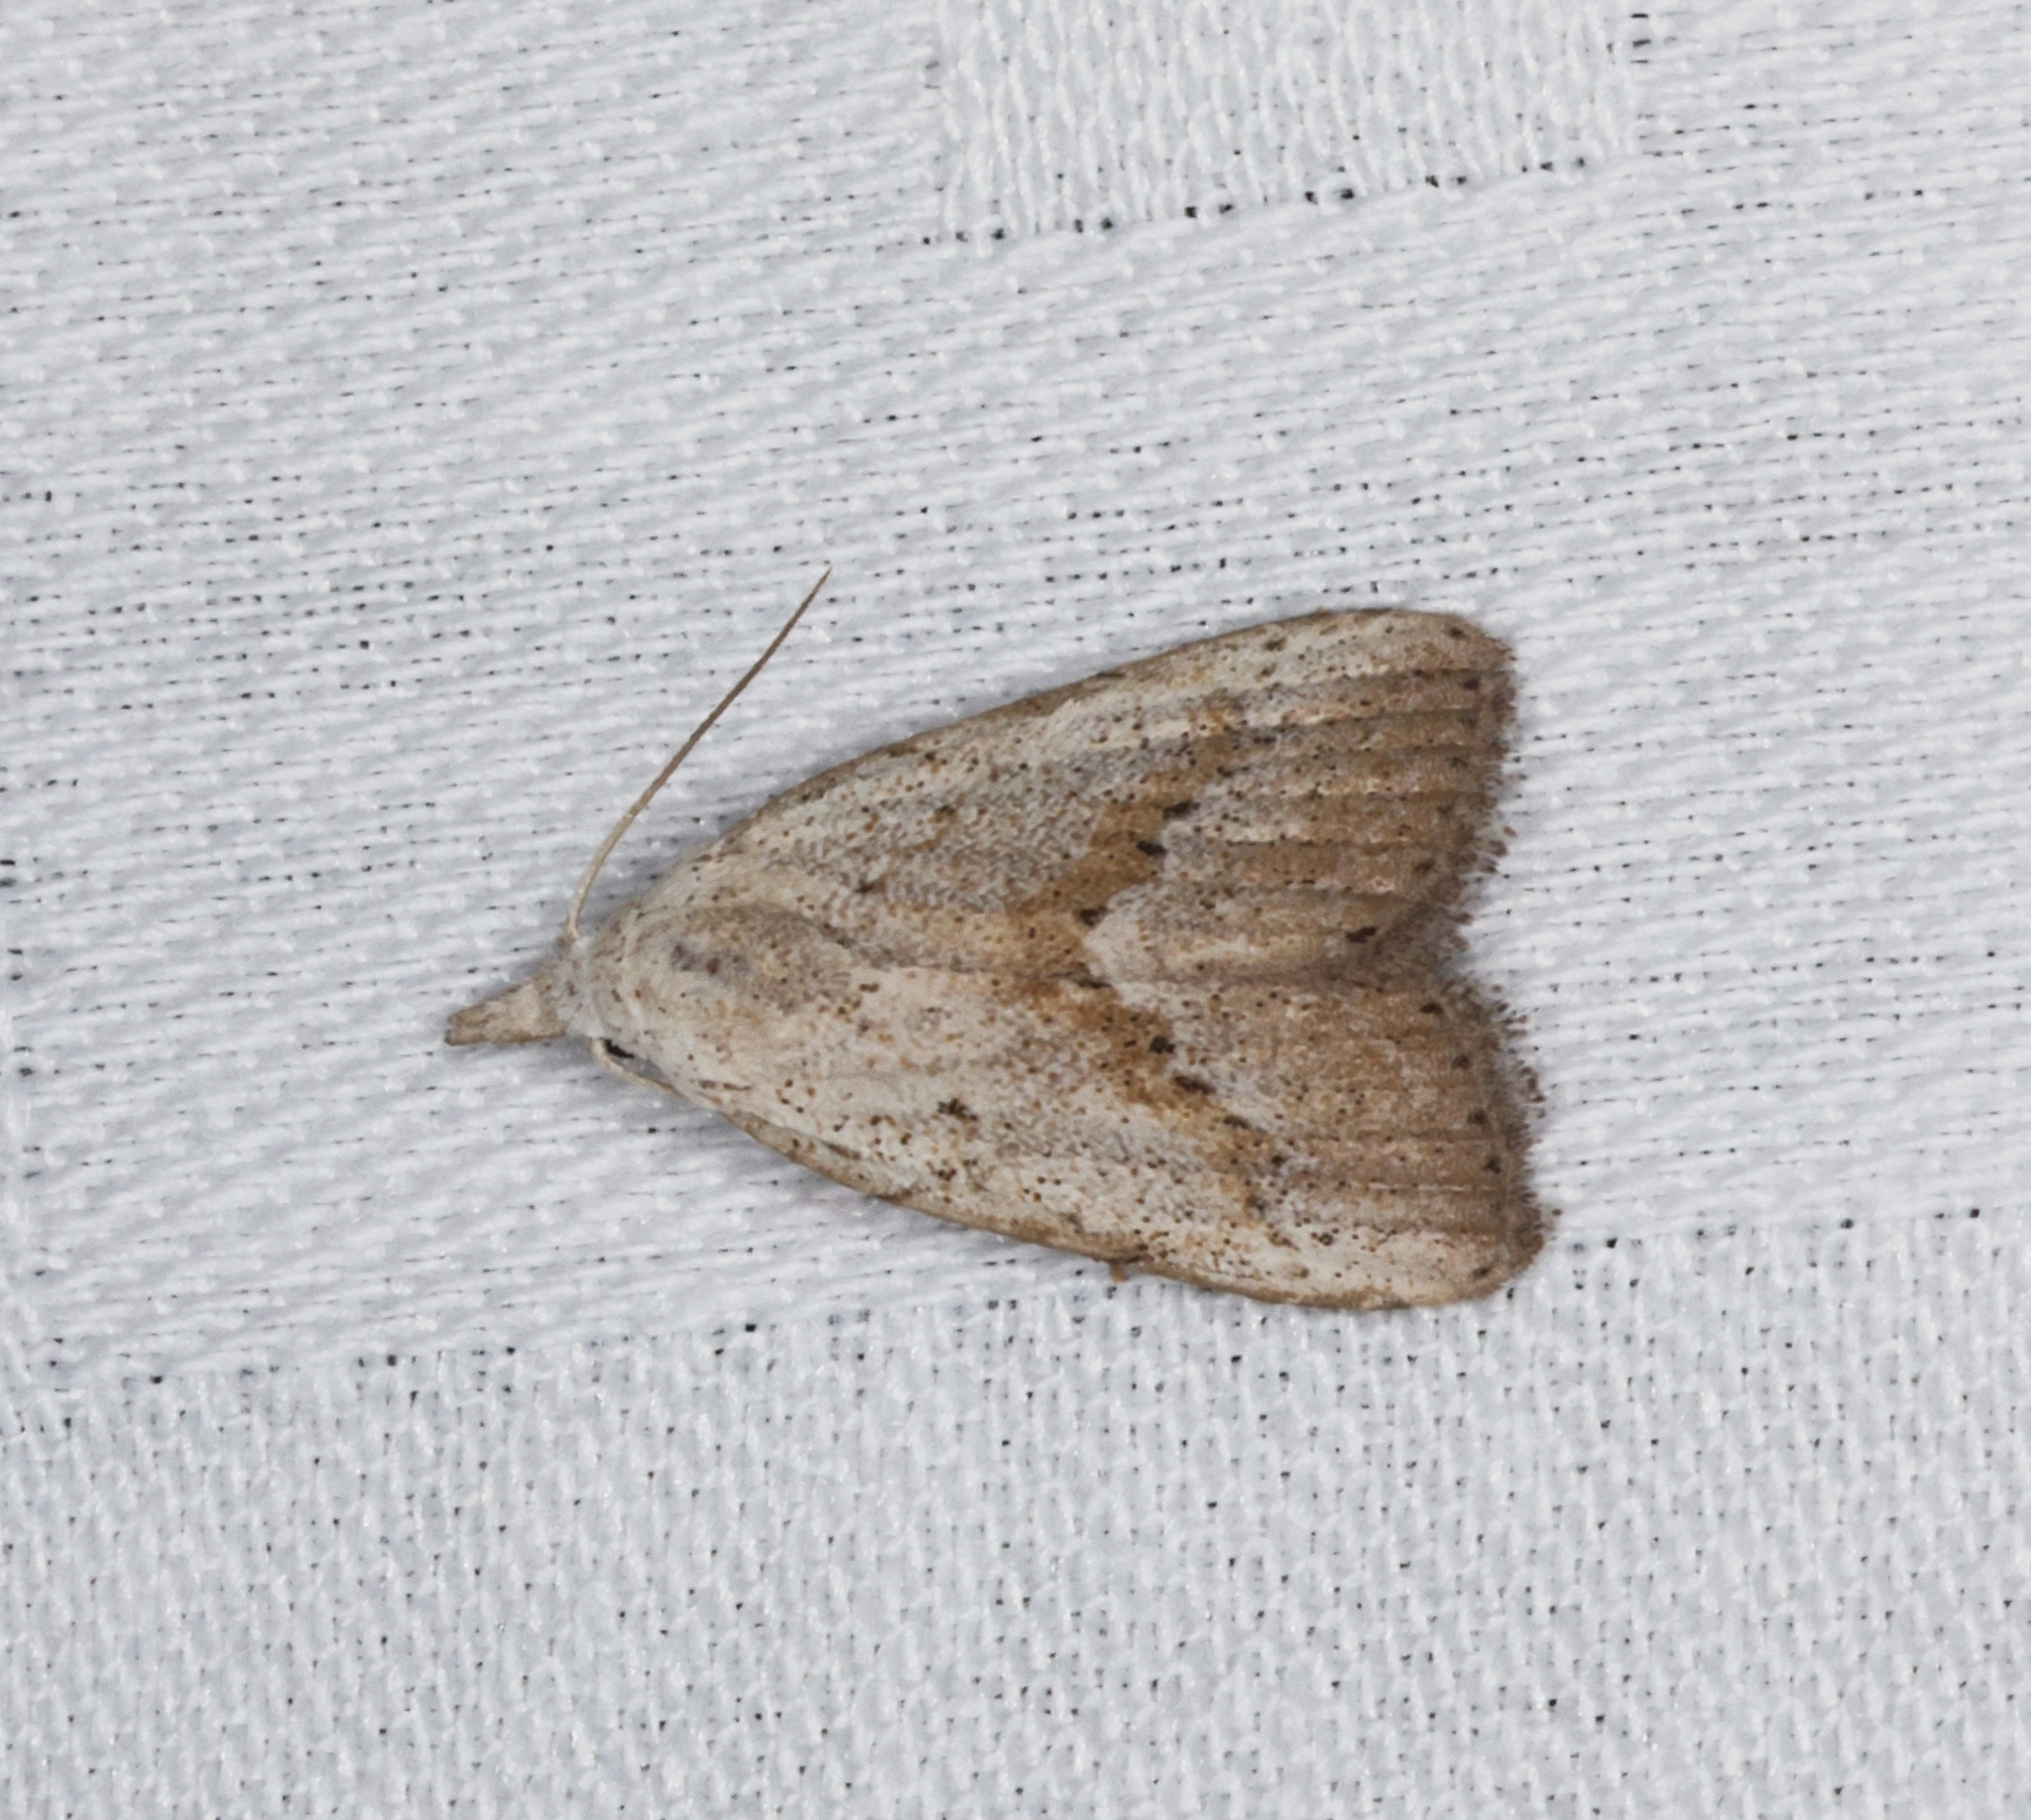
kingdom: Animalia
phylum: Arthropoda
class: Insecta
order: Lepidoptera
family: Nolidae
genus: Meganola
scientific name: Meganola brunellus
